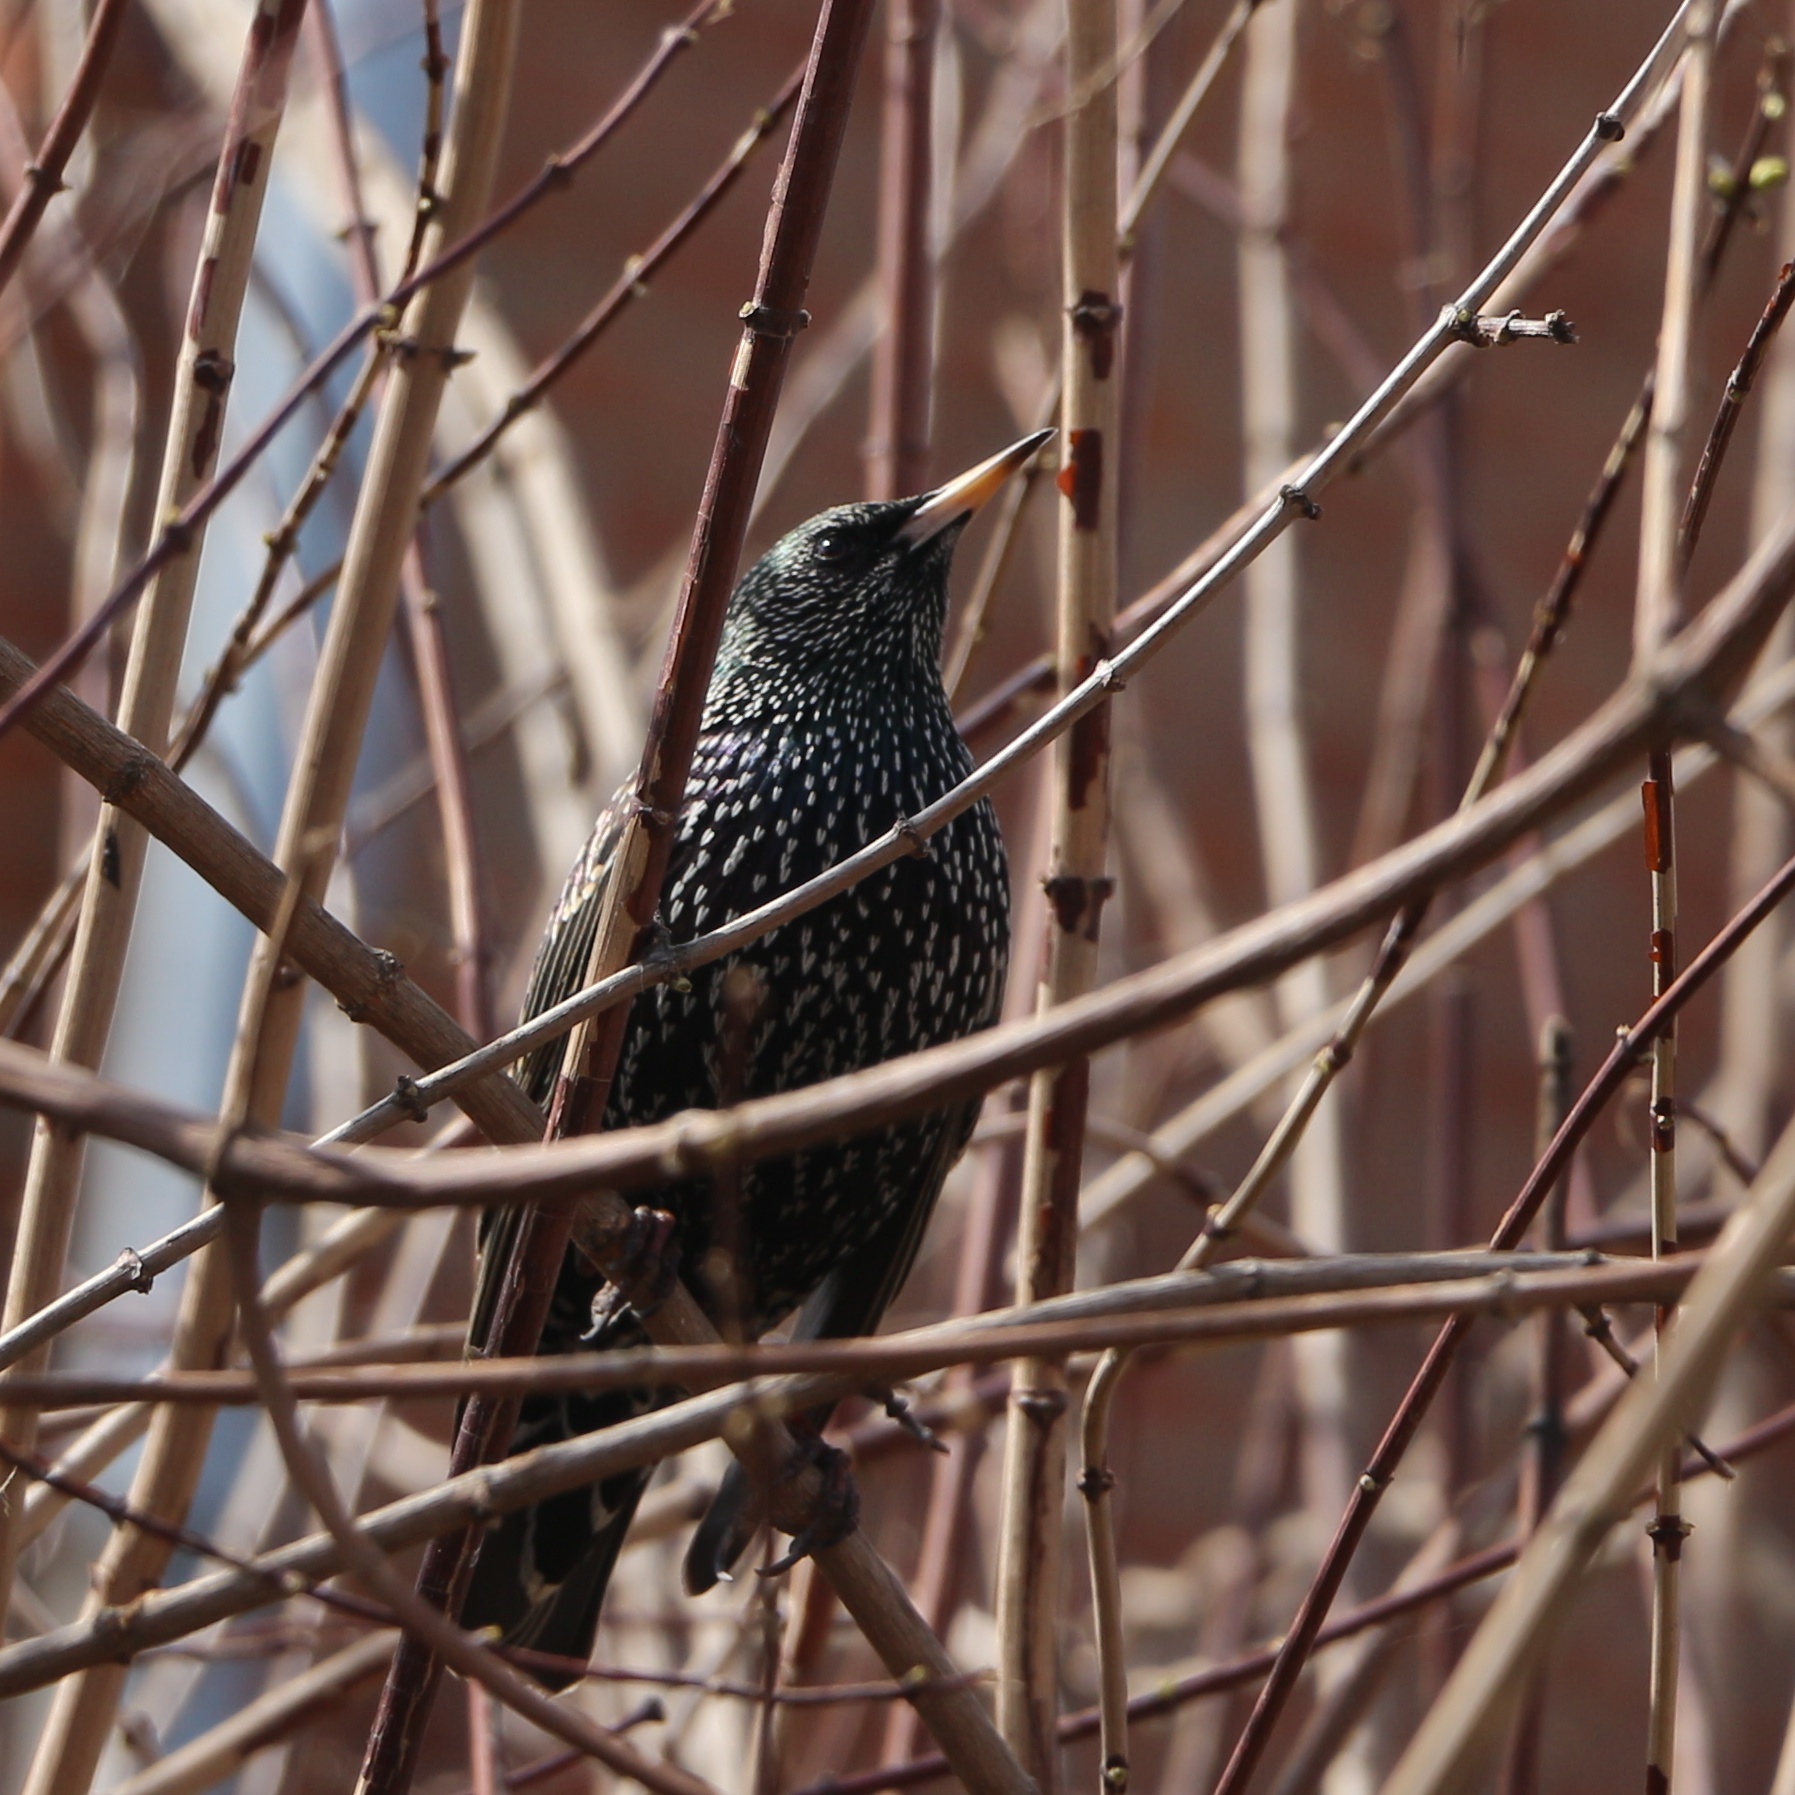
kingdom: Animalia
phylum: Chordata
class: Aves
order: Passeriformes
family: Sturnidae
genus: Sturnus
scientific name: Sturnus vulgaris
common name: Common starling
